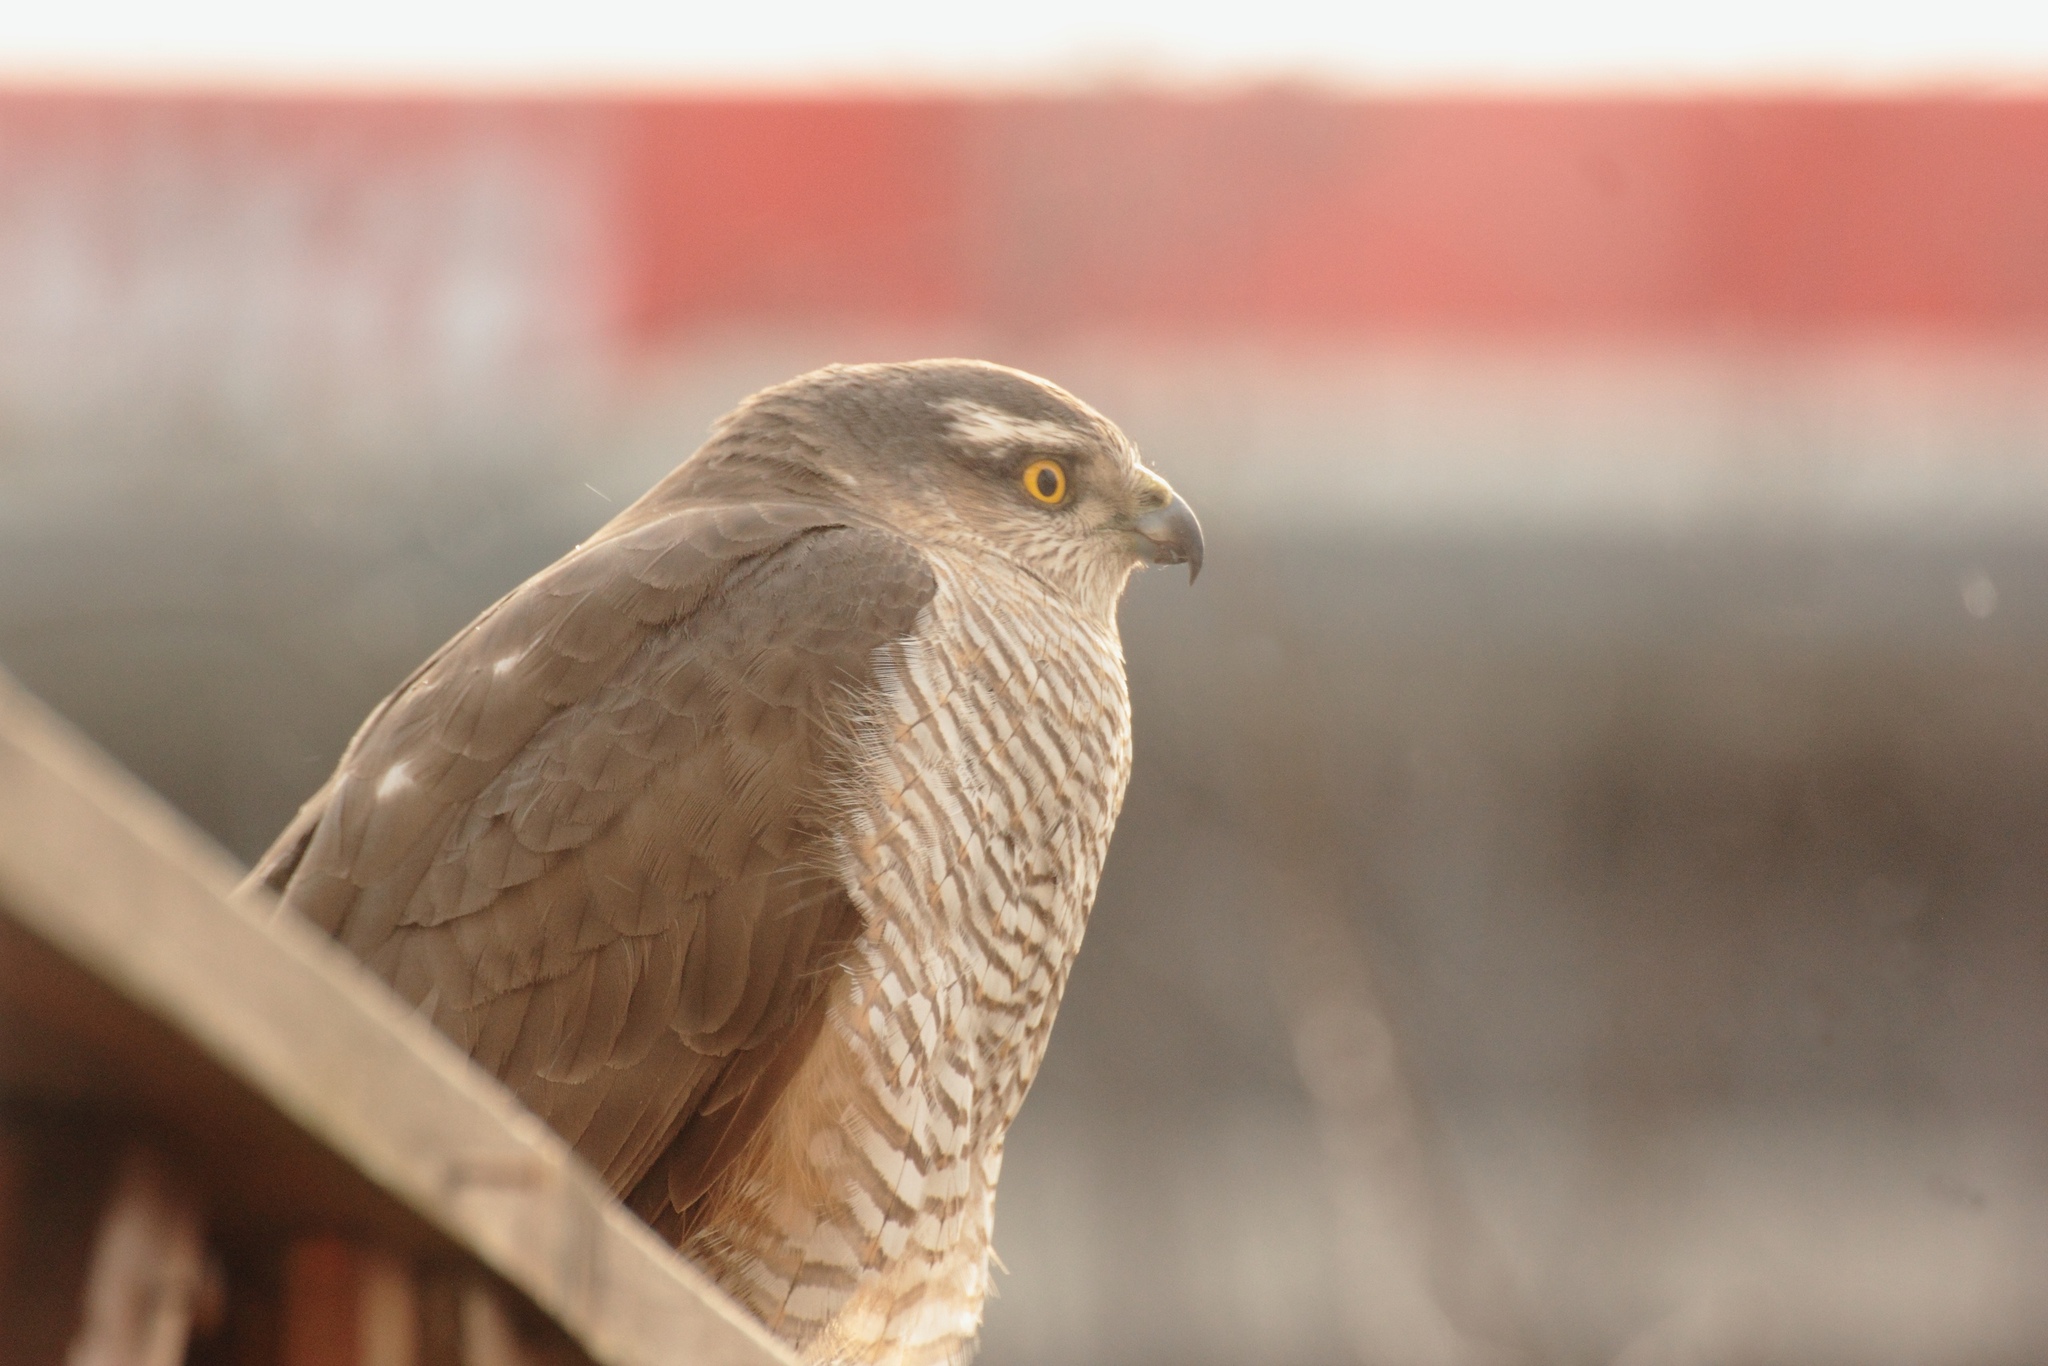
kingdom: Animalia
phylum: Chordata
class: Aves
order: Accipitriformes
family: Accipitridae
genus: Accipiter
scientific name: Accipiter nisus
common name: Eurasian sparrowhawk
